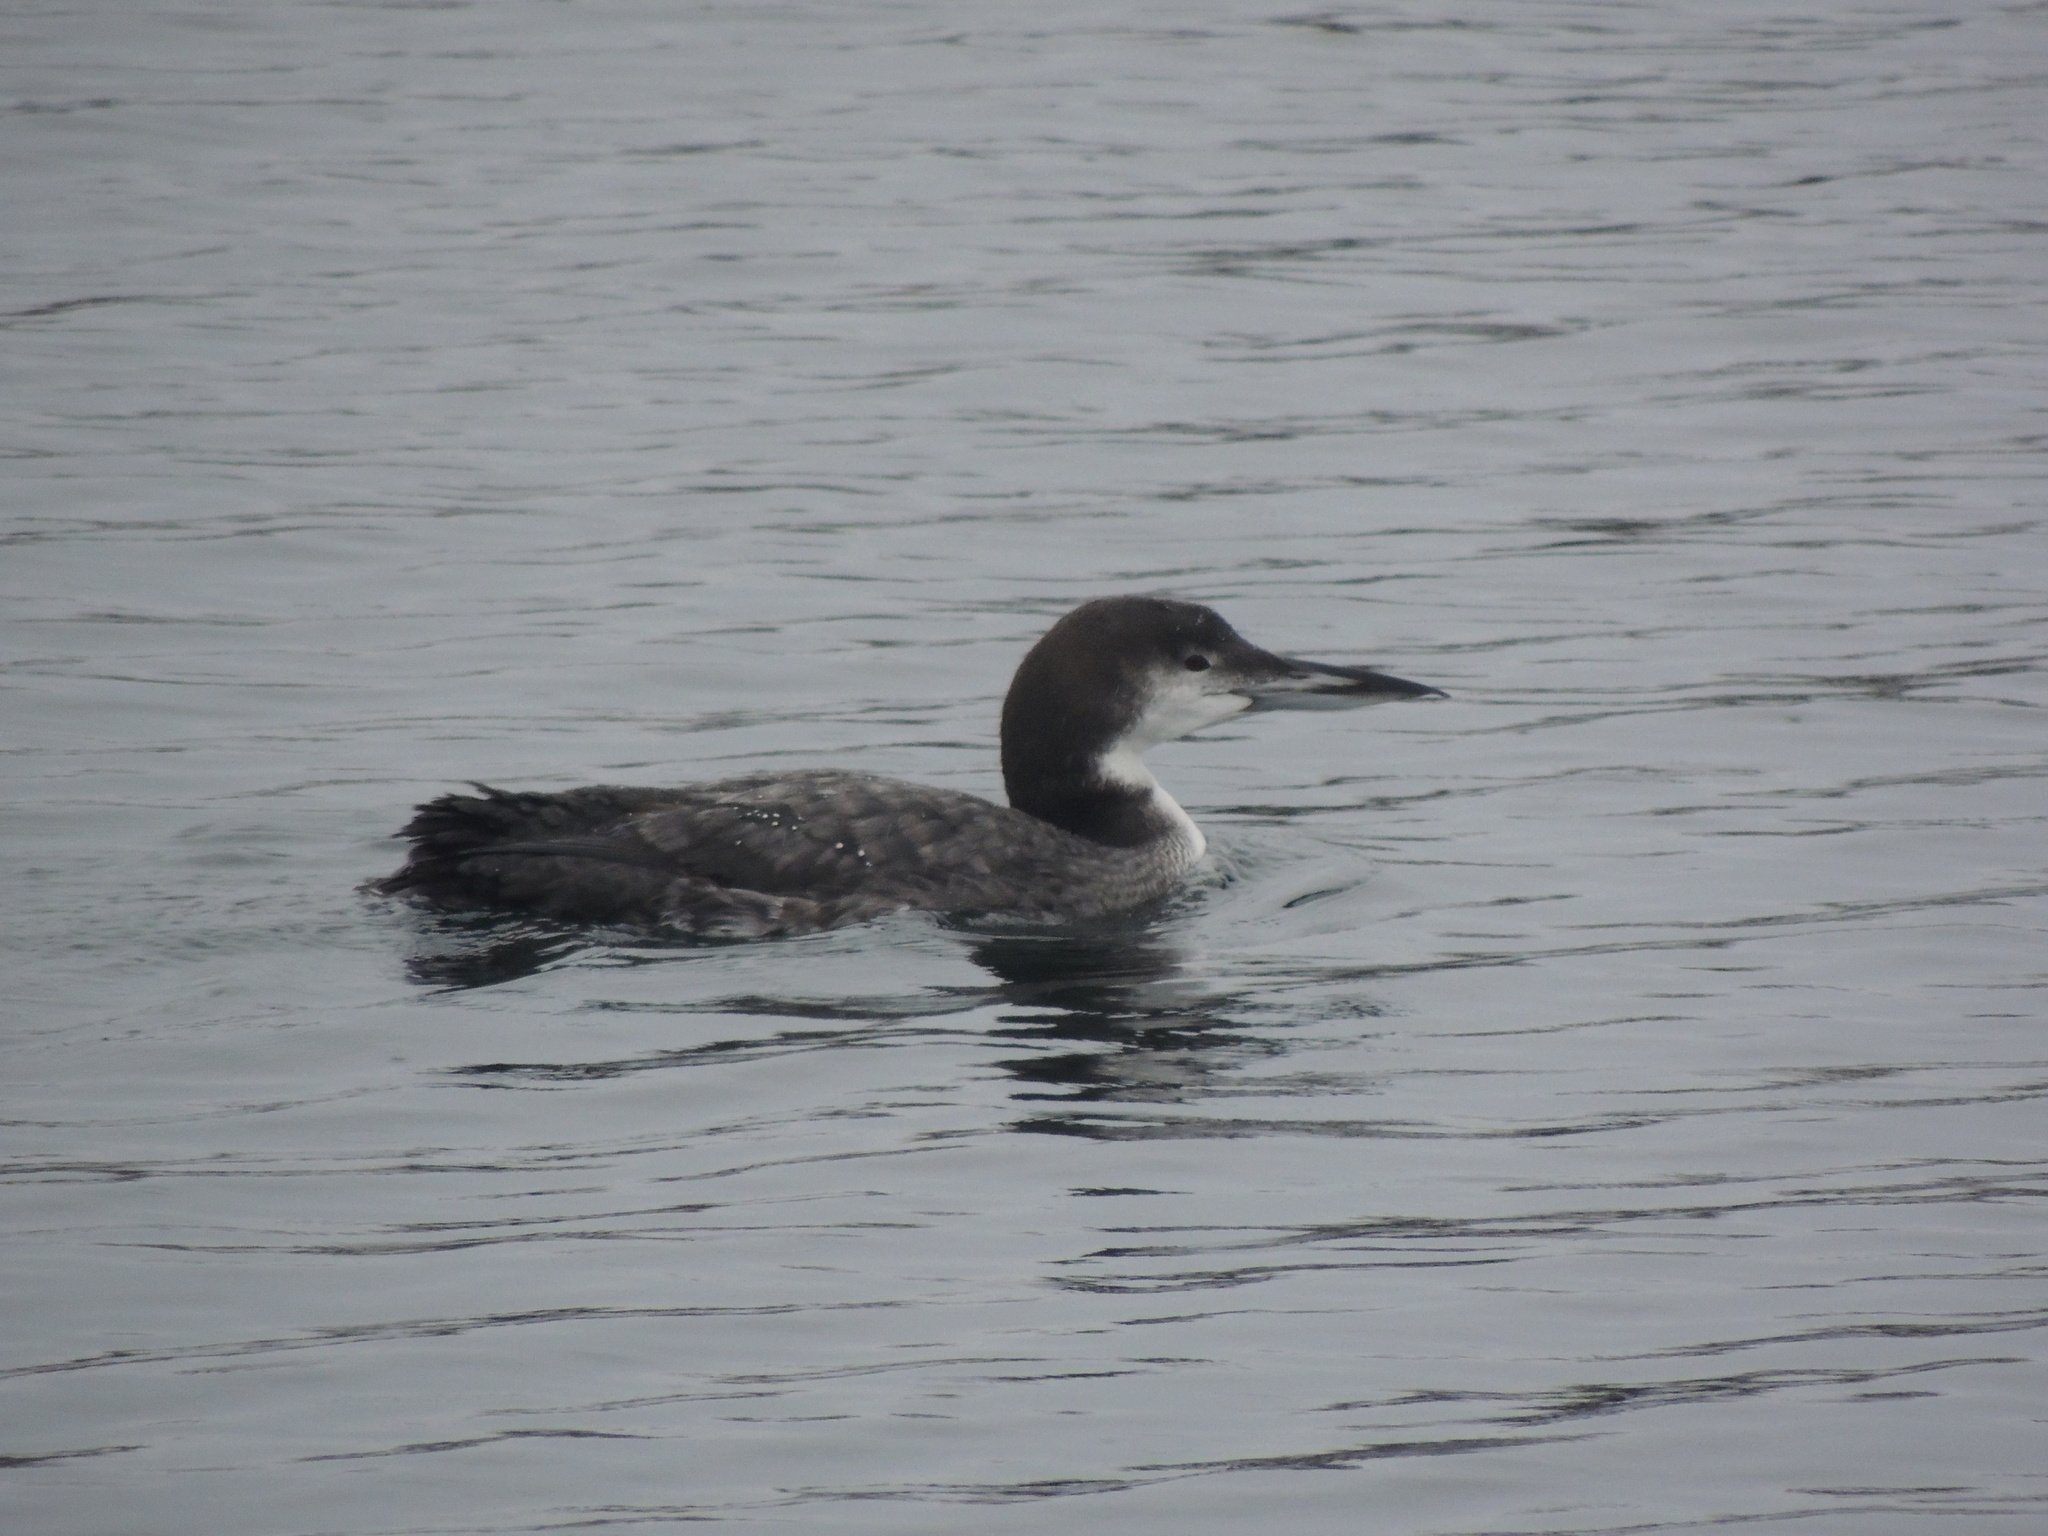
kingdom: Animalia
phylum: Chordata
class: Aves
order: Gaviiformes
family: Gaviidae
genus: Gavia
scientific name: Gavia immer
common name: Common loon
